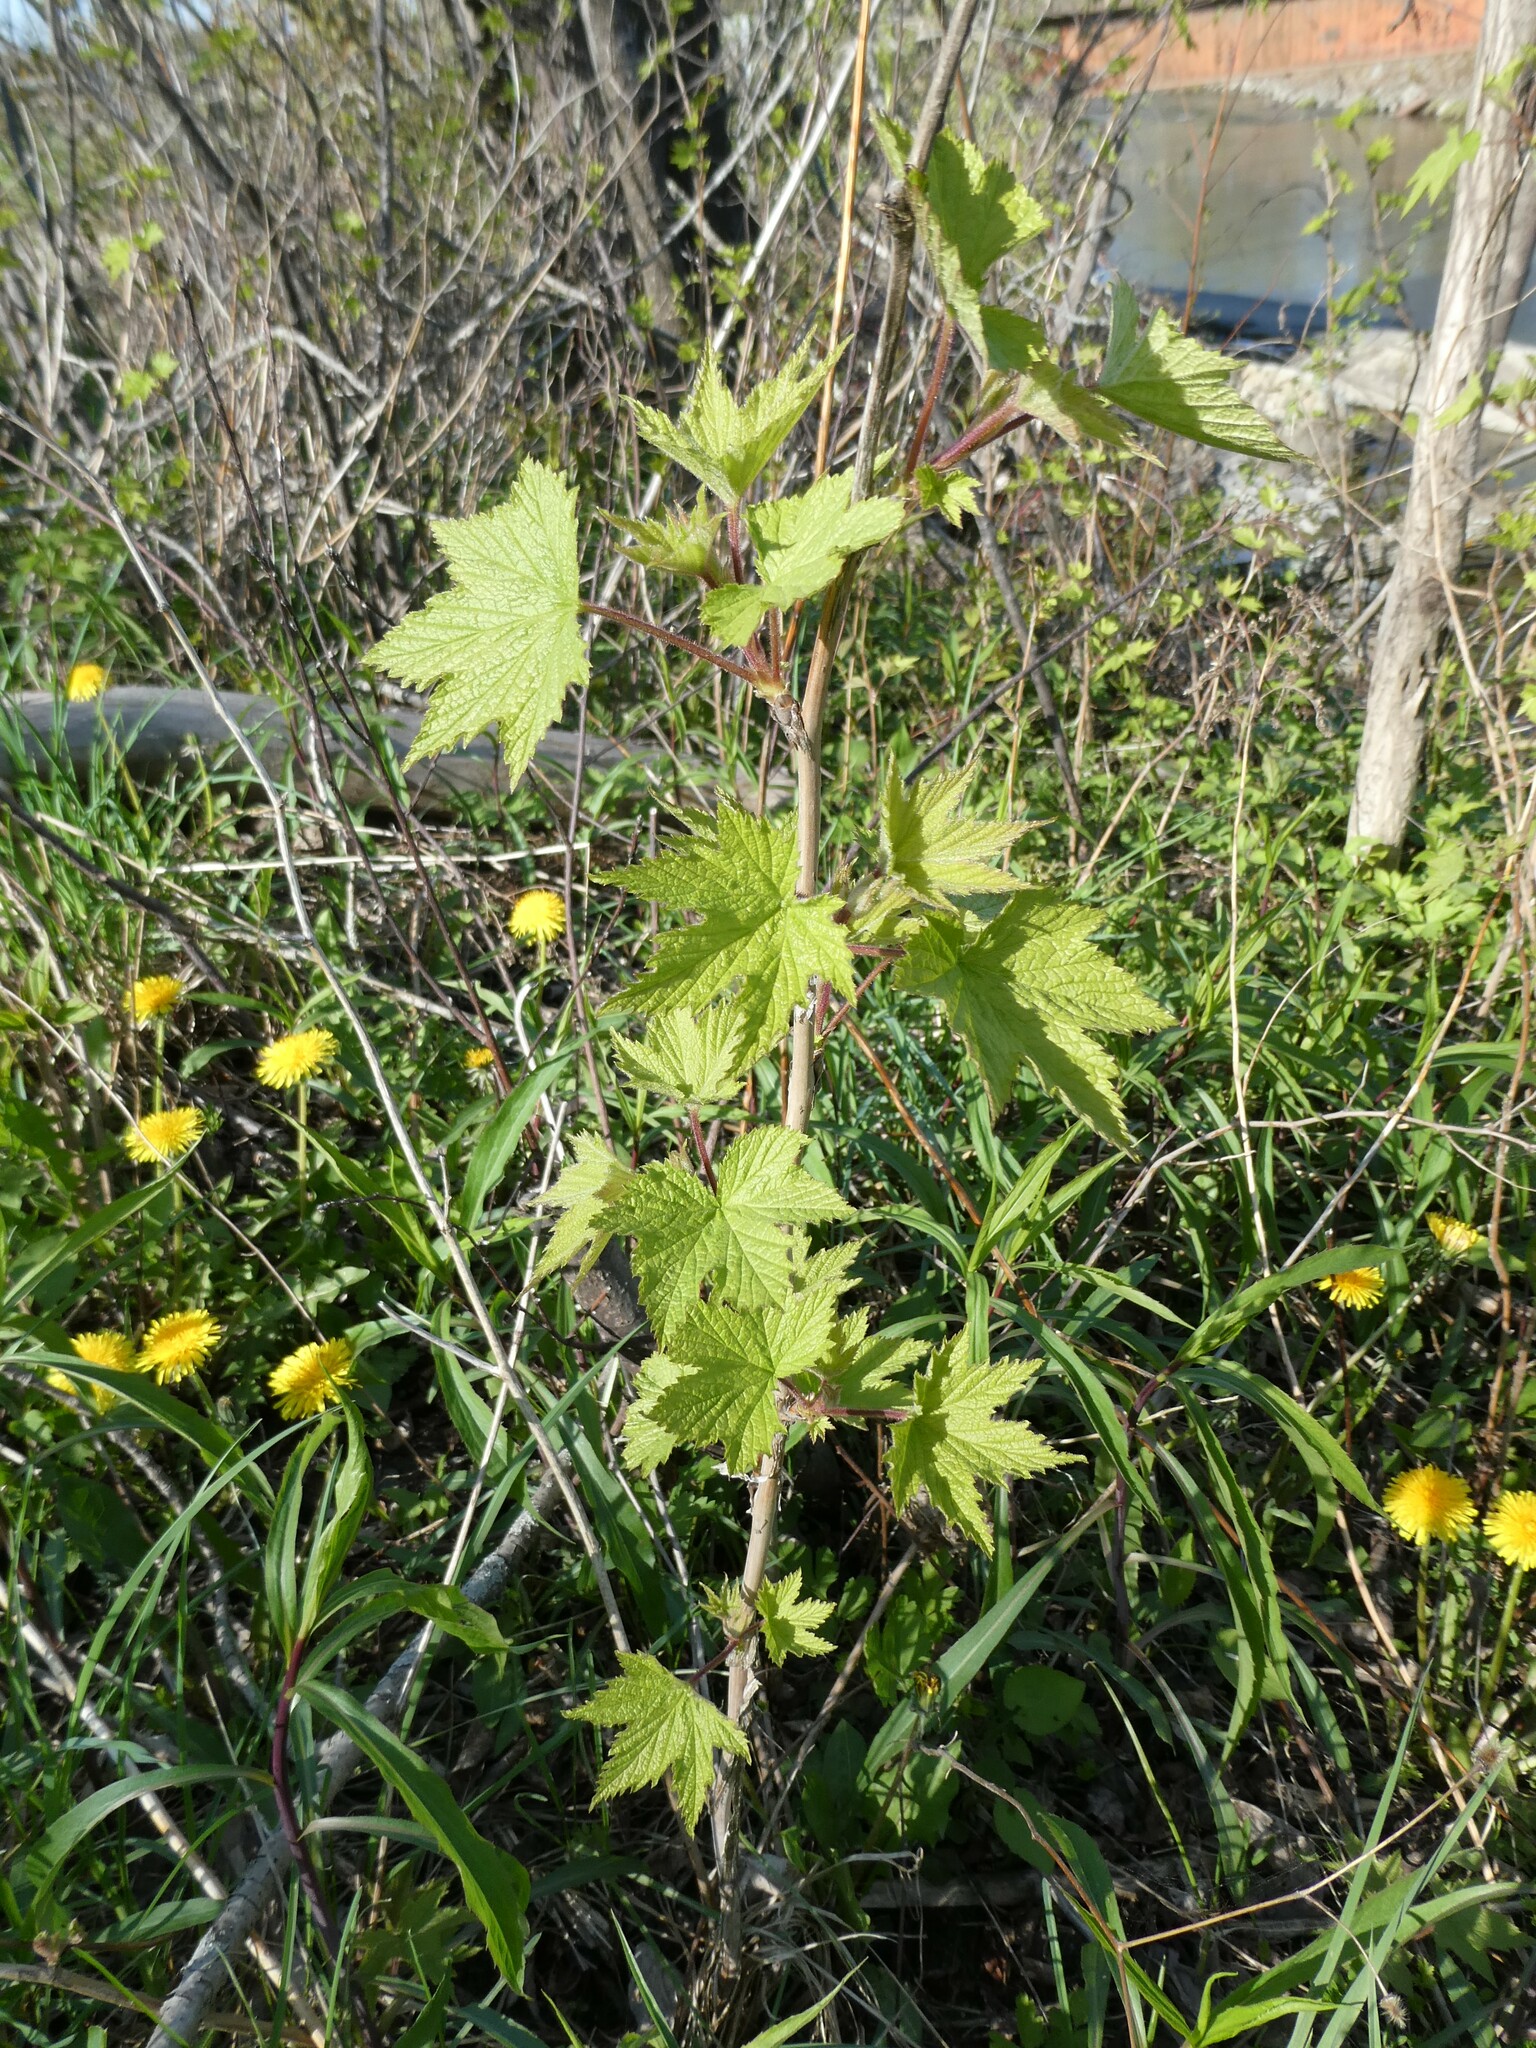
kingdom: Plantae
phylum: Tracheophyta
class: Magnoliopsida
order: Rosales
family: Rosaceae
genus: Rubus
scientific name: Rubus odoratus
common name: Purple-flowered raspberry
